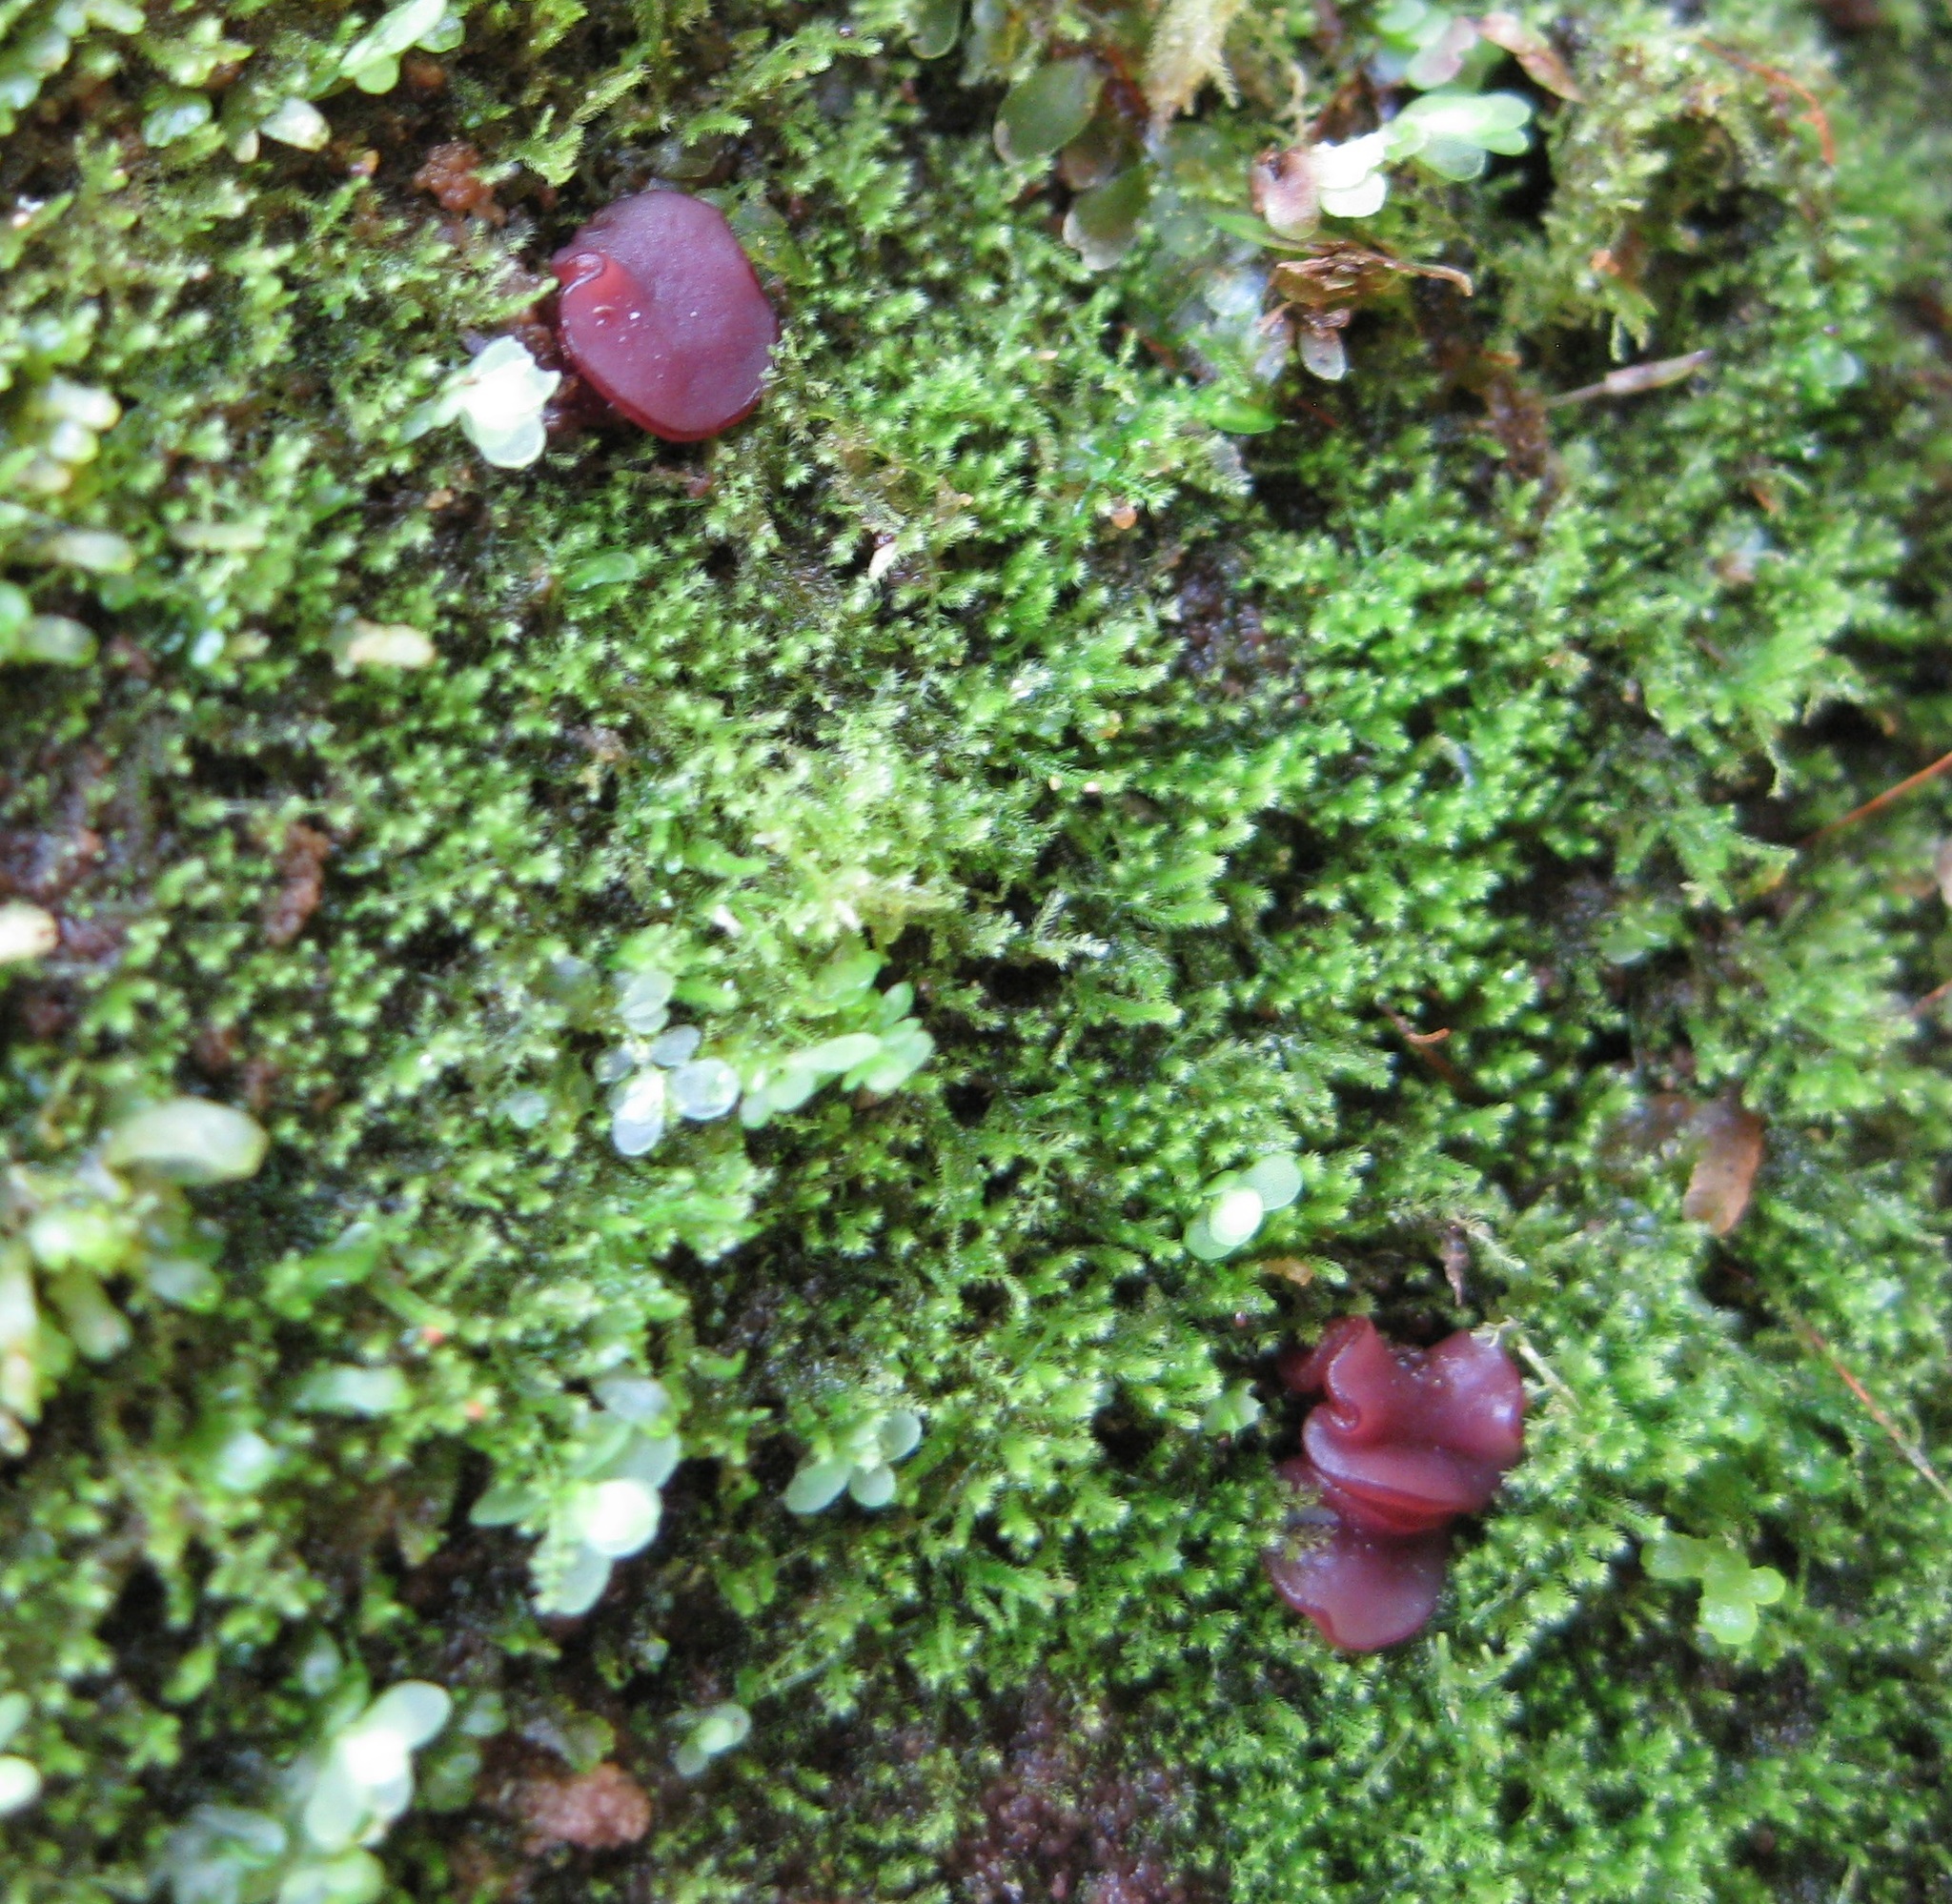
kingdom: Fungi
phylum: Ascomycota
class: Leotiomycetes
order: Helotiales
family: Gelatinodiscaceae
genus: Ascocoryne
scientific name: Ascocoryne sarcoides
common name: Purple jellydisc
